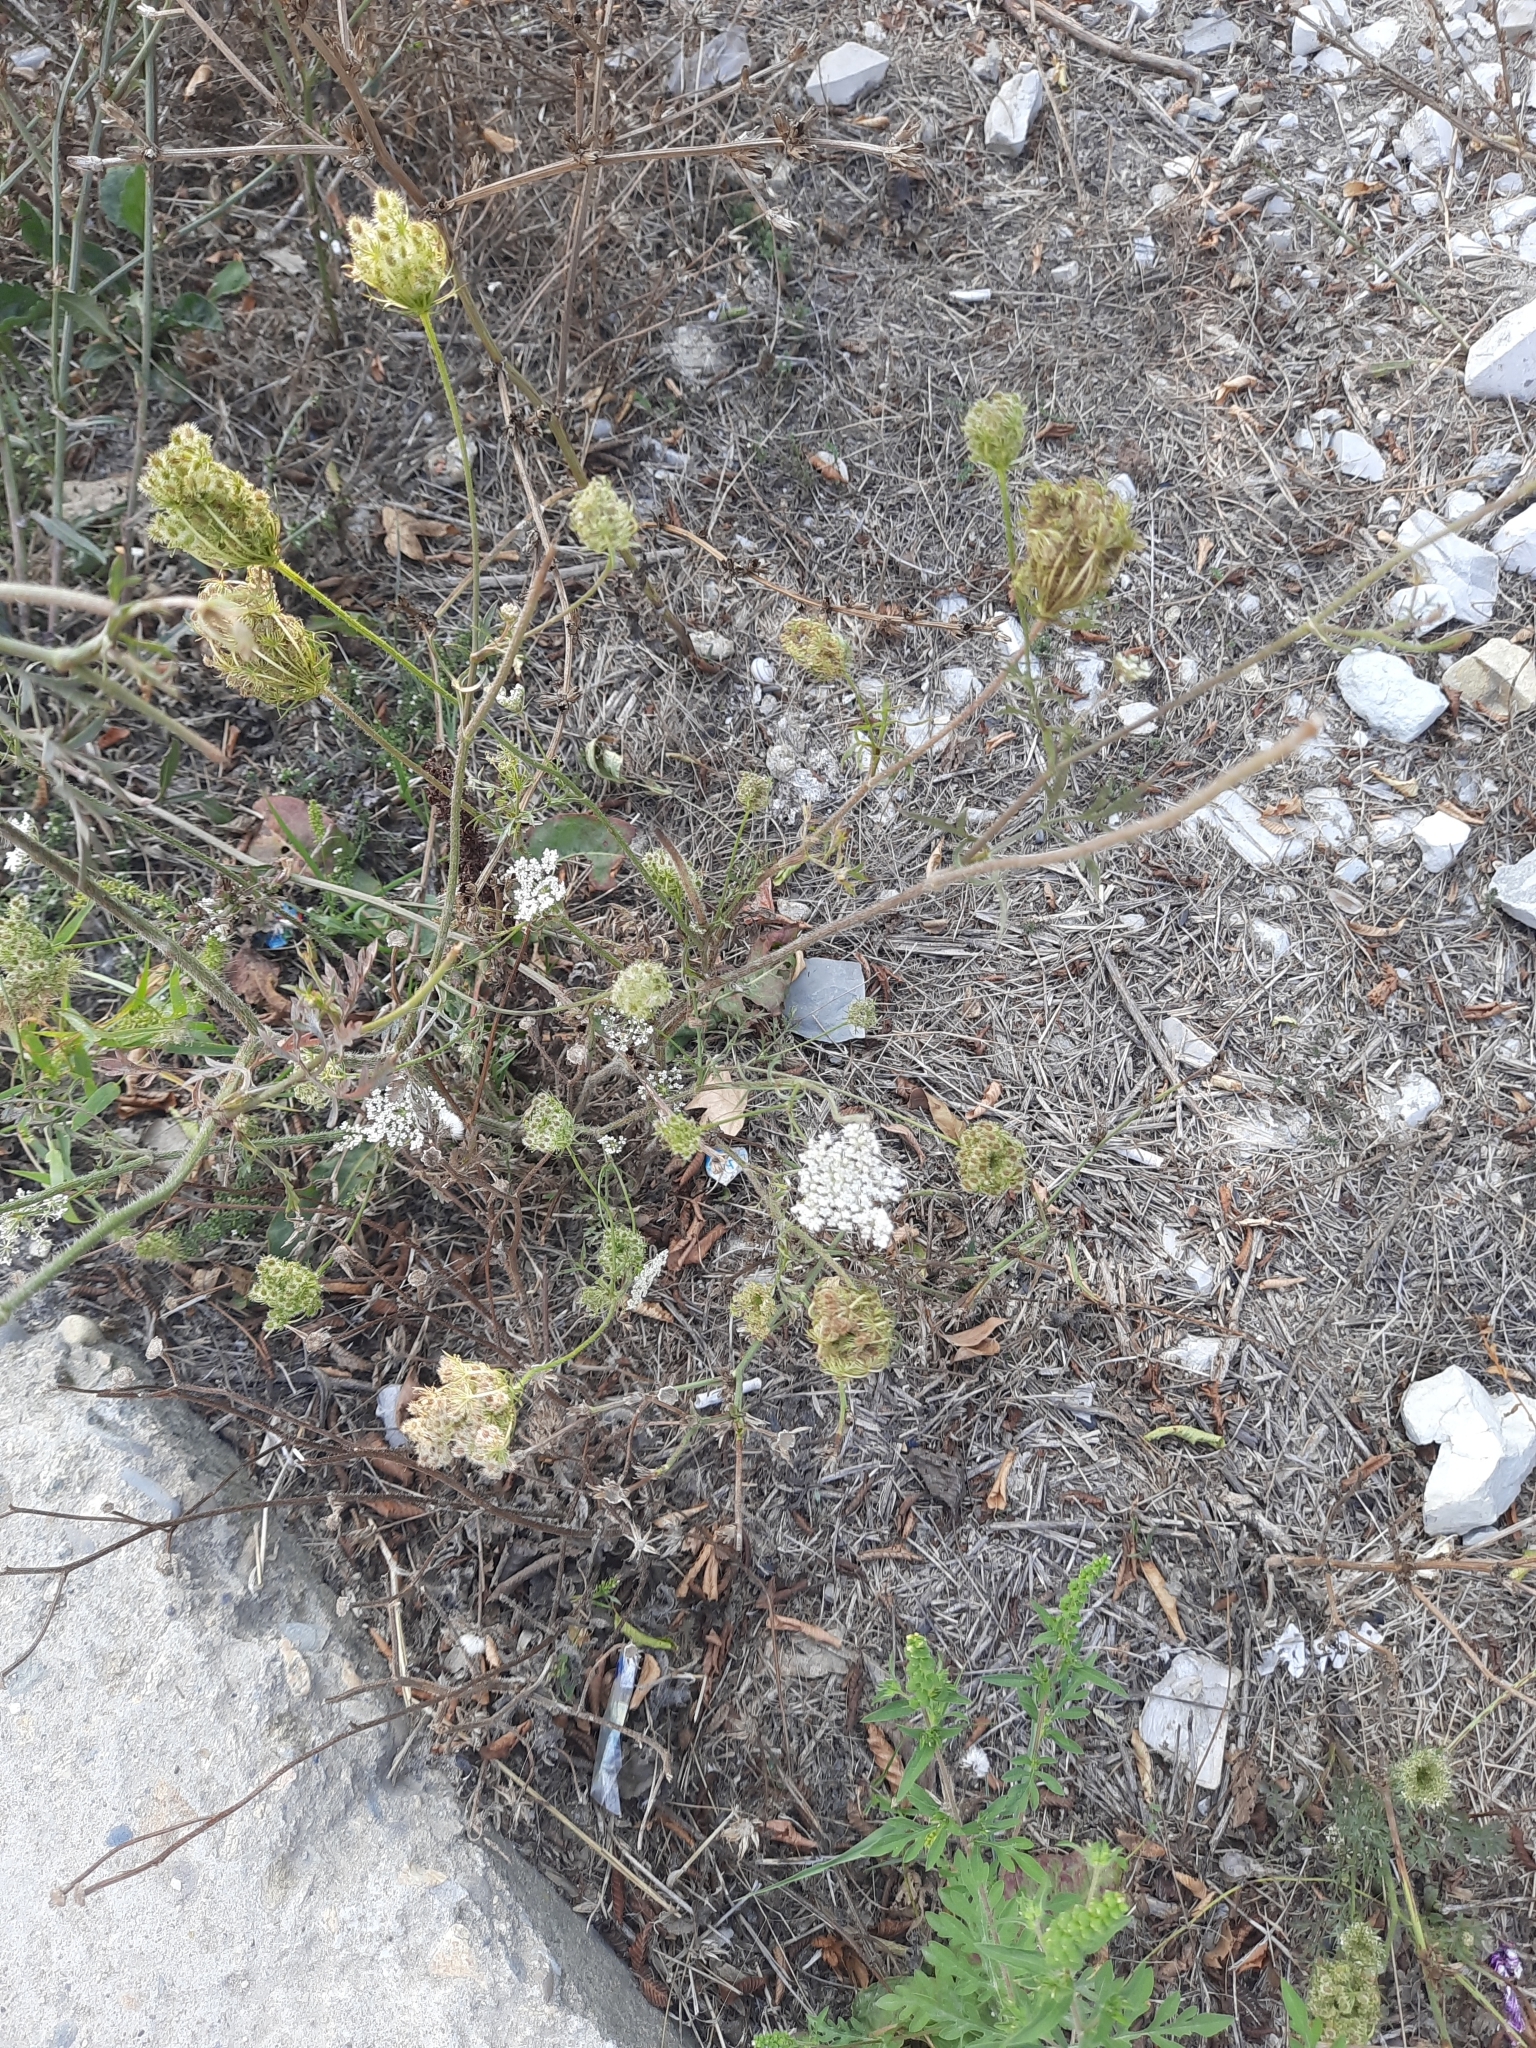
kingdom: Plantae
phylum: Tracheophyta
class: Magnoliopsida
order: Apiales
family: Apiaceae
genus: Daucus
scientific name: Daucus carota
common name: Wild carrot
